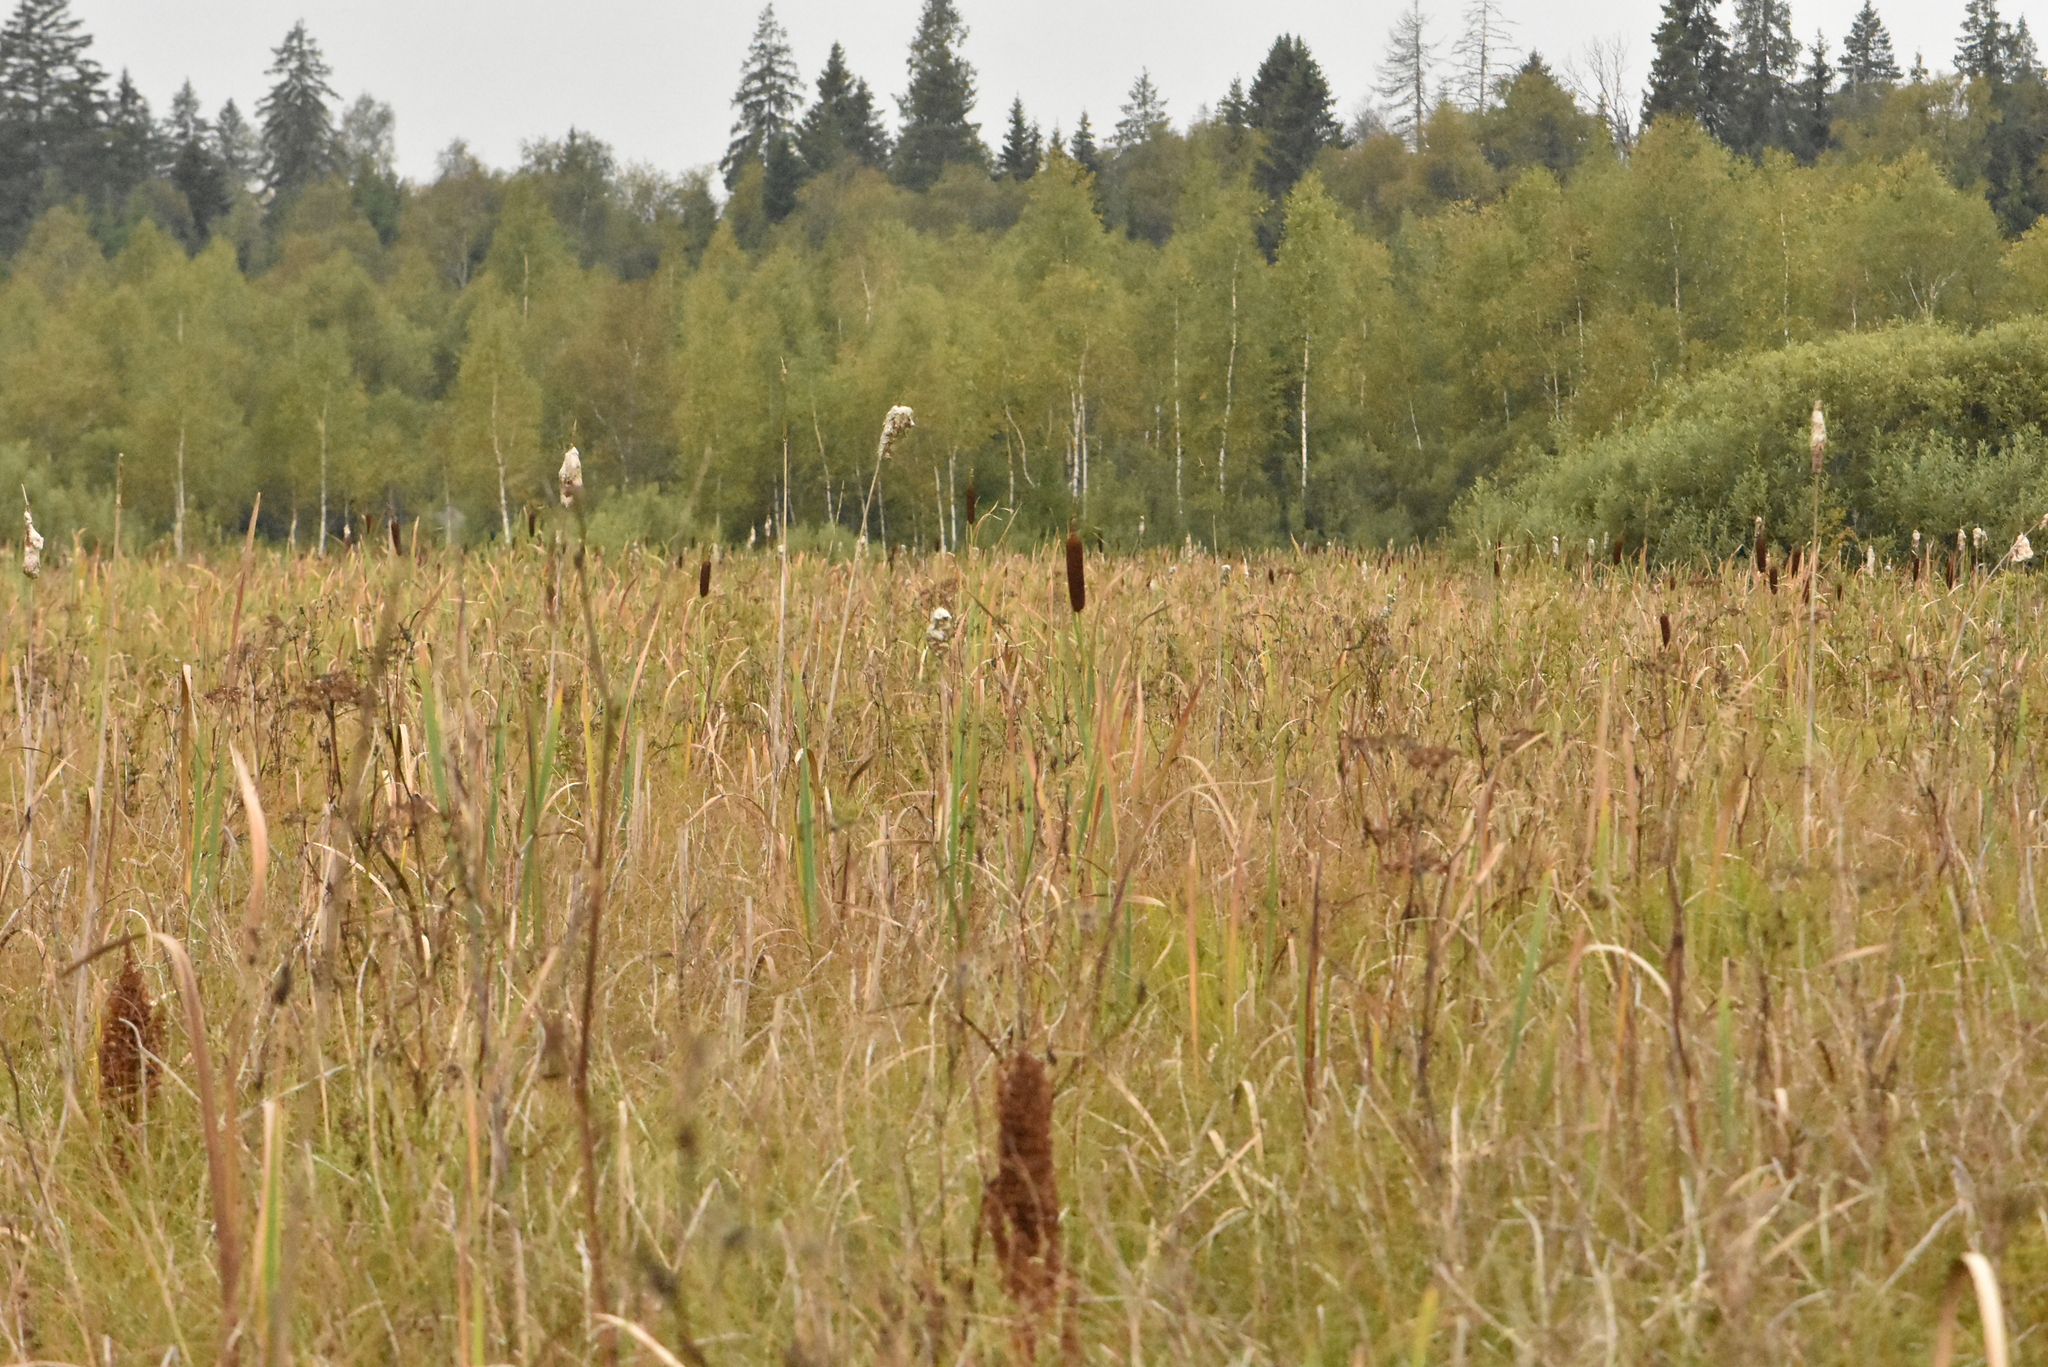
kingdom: Plantae
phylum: Tracheophyta
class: Liliopsida
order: Poales
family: Typhaceae
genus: Typha
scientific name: Typha latifolia
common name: Broadleaf cattail
